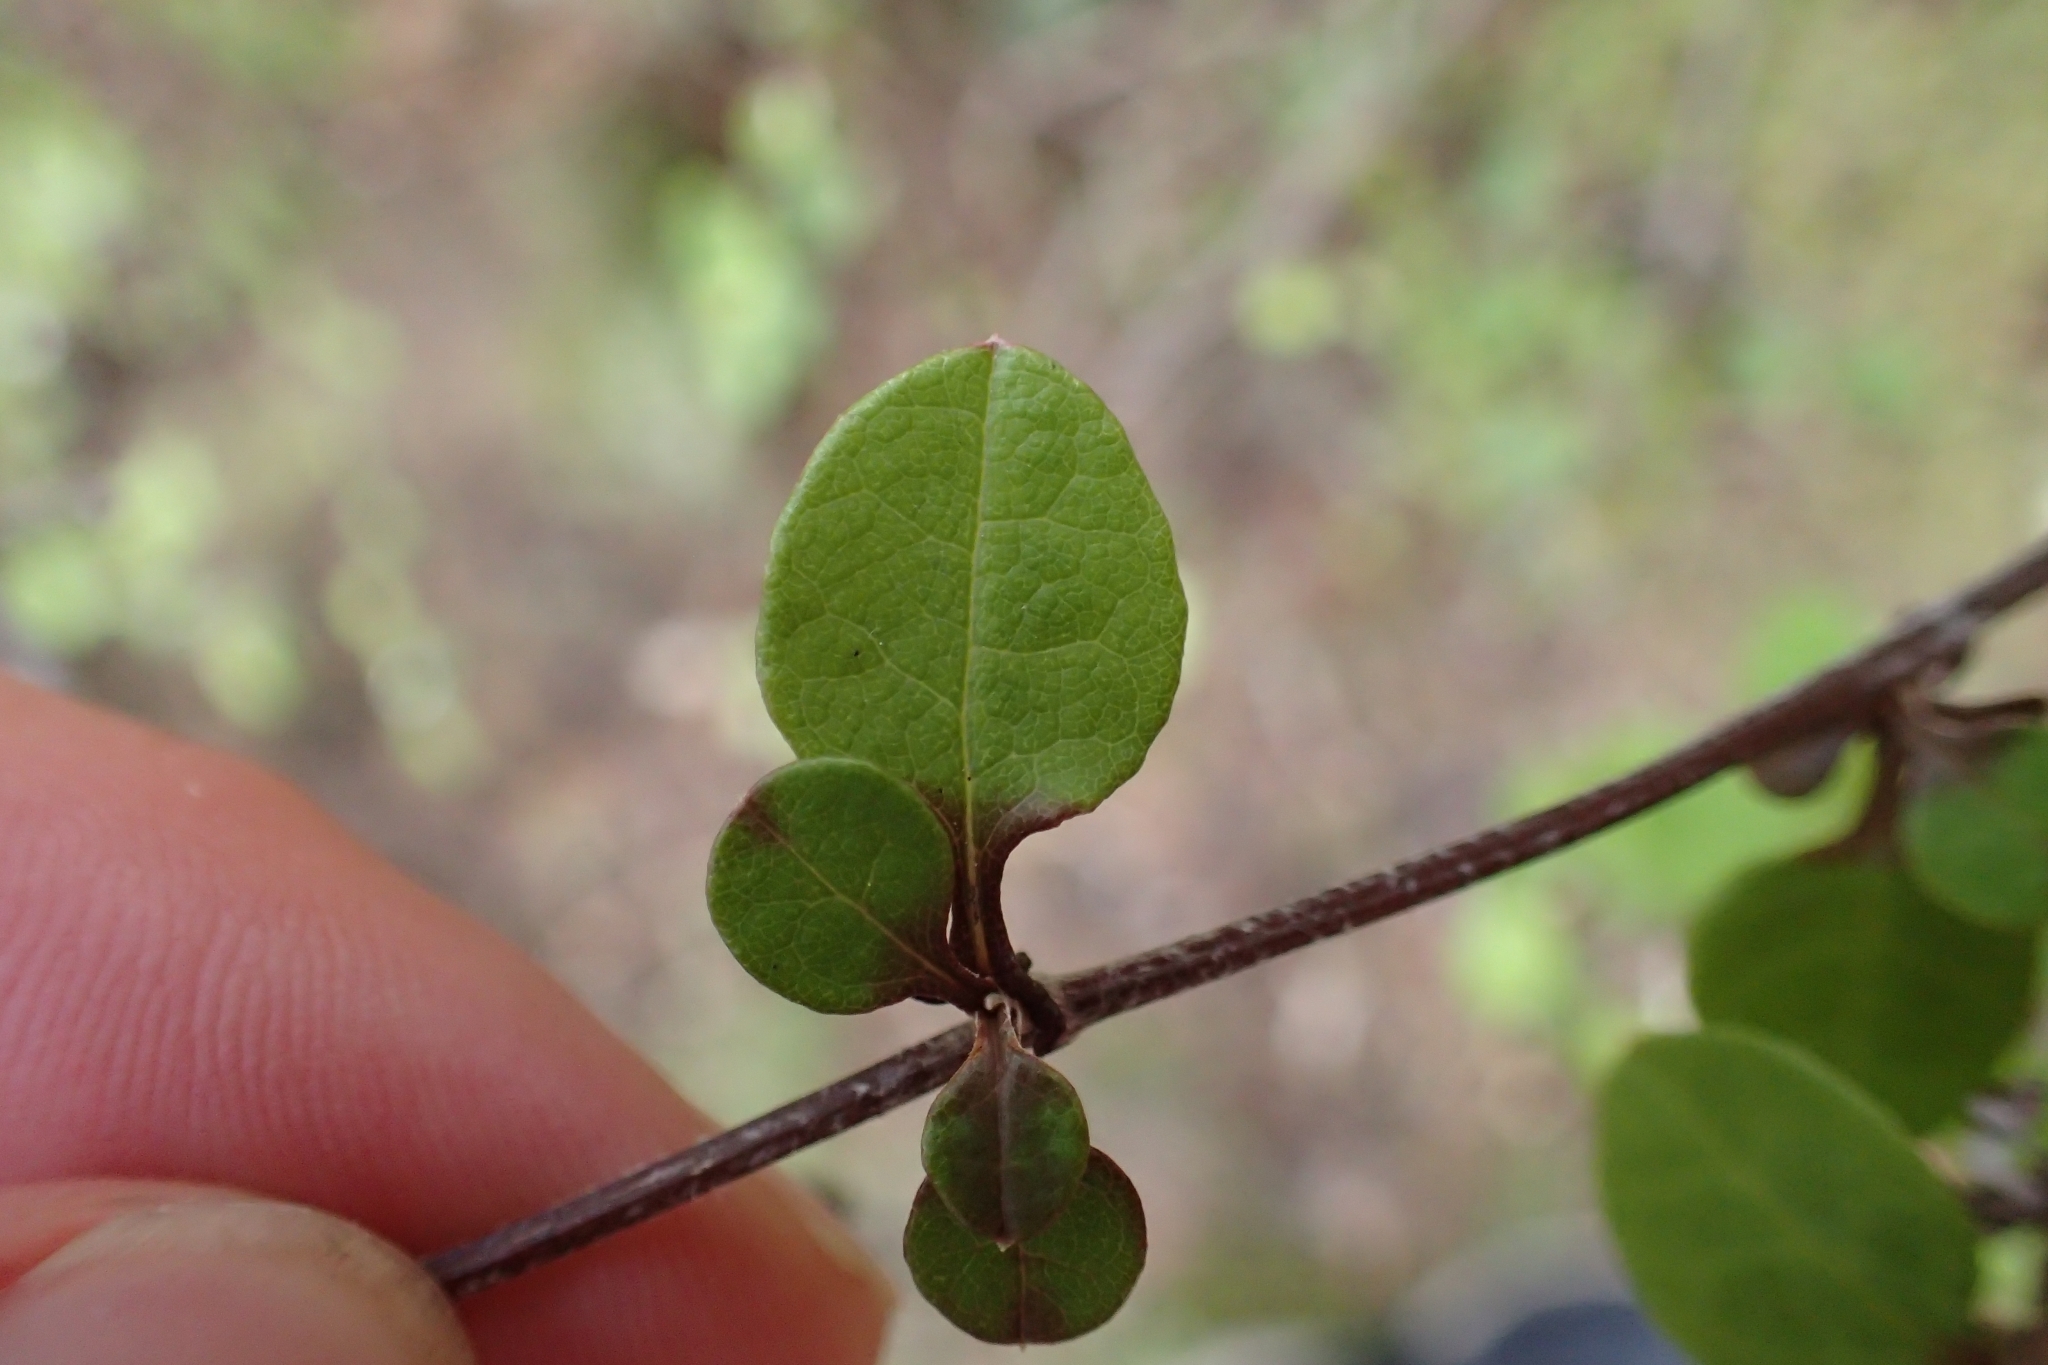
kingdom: Plantae
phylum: Tracheophyta
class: Magnoliopsida
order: Asterales
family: Asteraceae
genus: Ozothamnus
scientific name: Ozothamnus glomeratus
